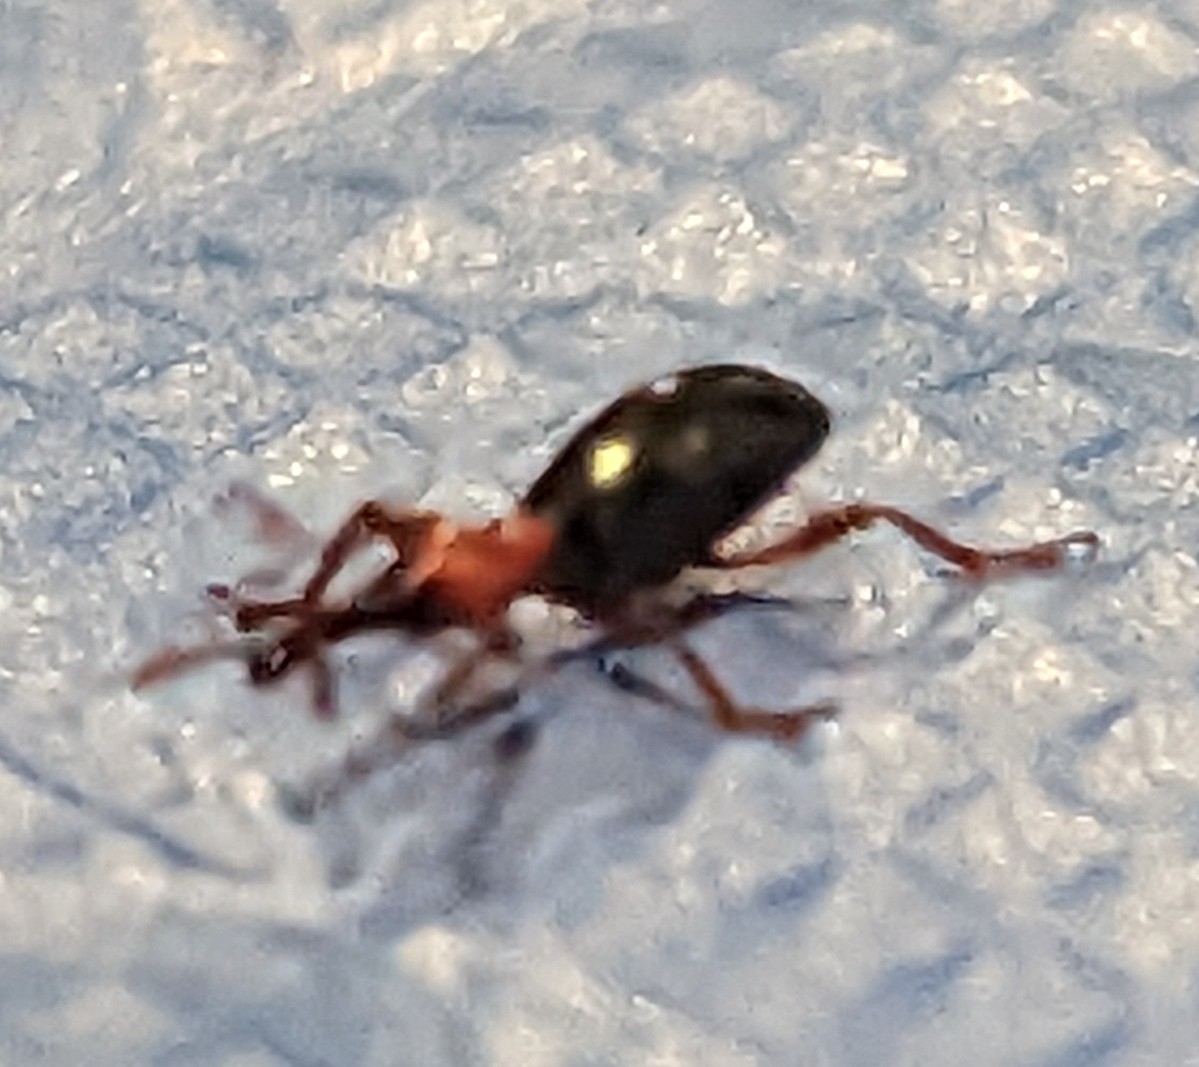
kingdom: Animalia
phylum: Arthropoda
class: Insecta
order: Coleoptera
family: Brentidae
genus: Cylas
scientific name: Cylas formicarius
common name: Sweetpotato weevil
